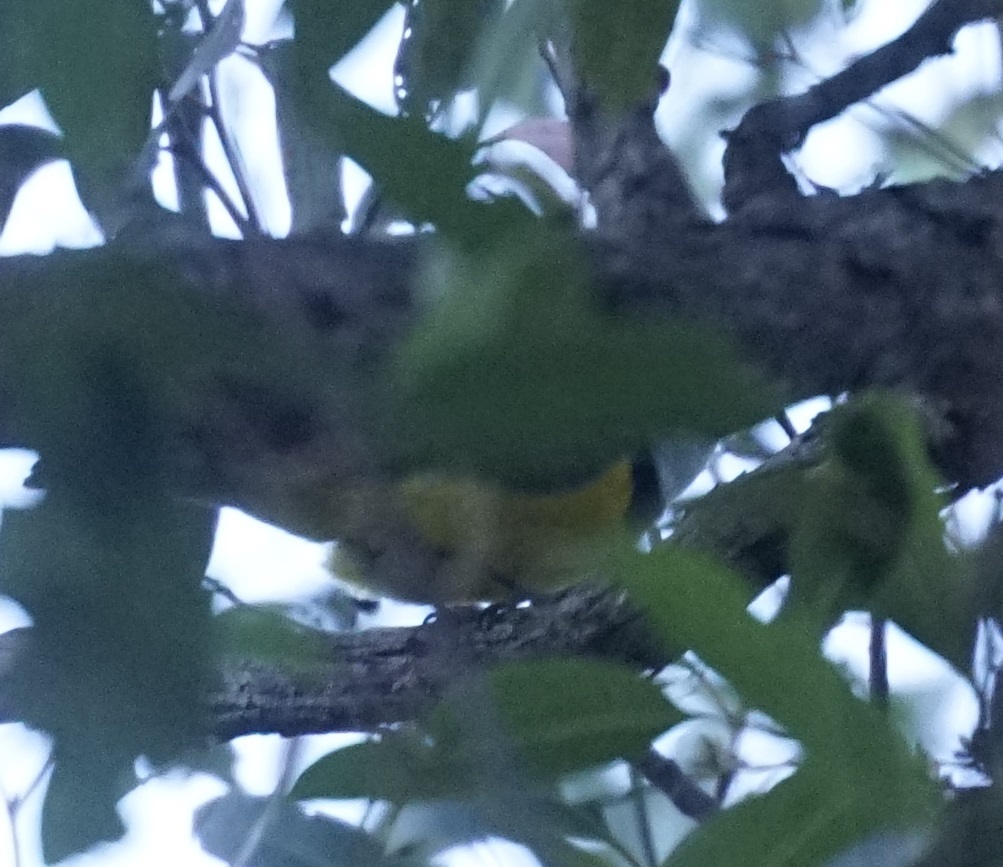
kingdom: Animalia
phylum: Chordata
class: Aves
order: Passeriformes
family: Pachycephalidae
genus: Pachycephala
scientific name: Pachycephala pectoralis
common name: Australian golden whistler
